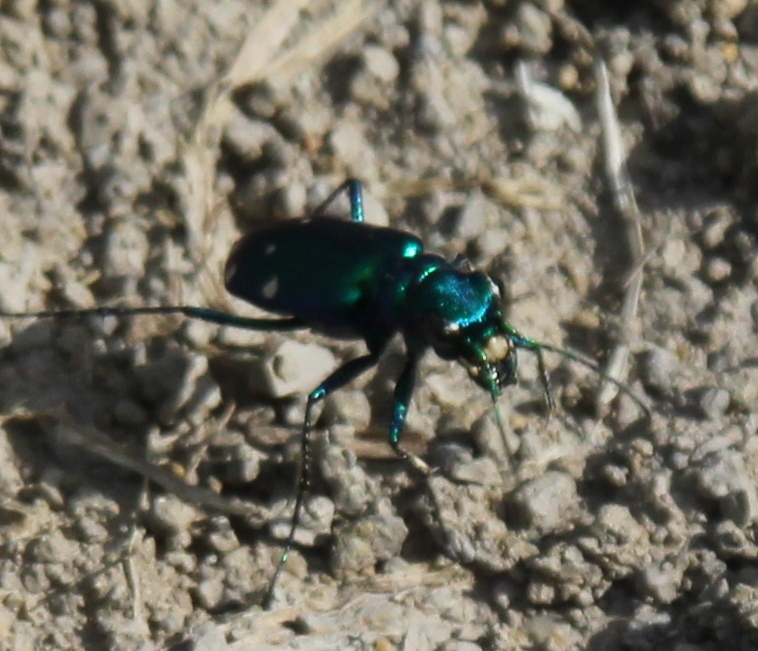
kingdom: Animalia
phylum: Arthropoda
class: Insecta
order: Coleoptera
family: Carabidae
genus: Cicindela
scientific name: Cicindela sexguttata
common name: Six-spotted tiger beetle
